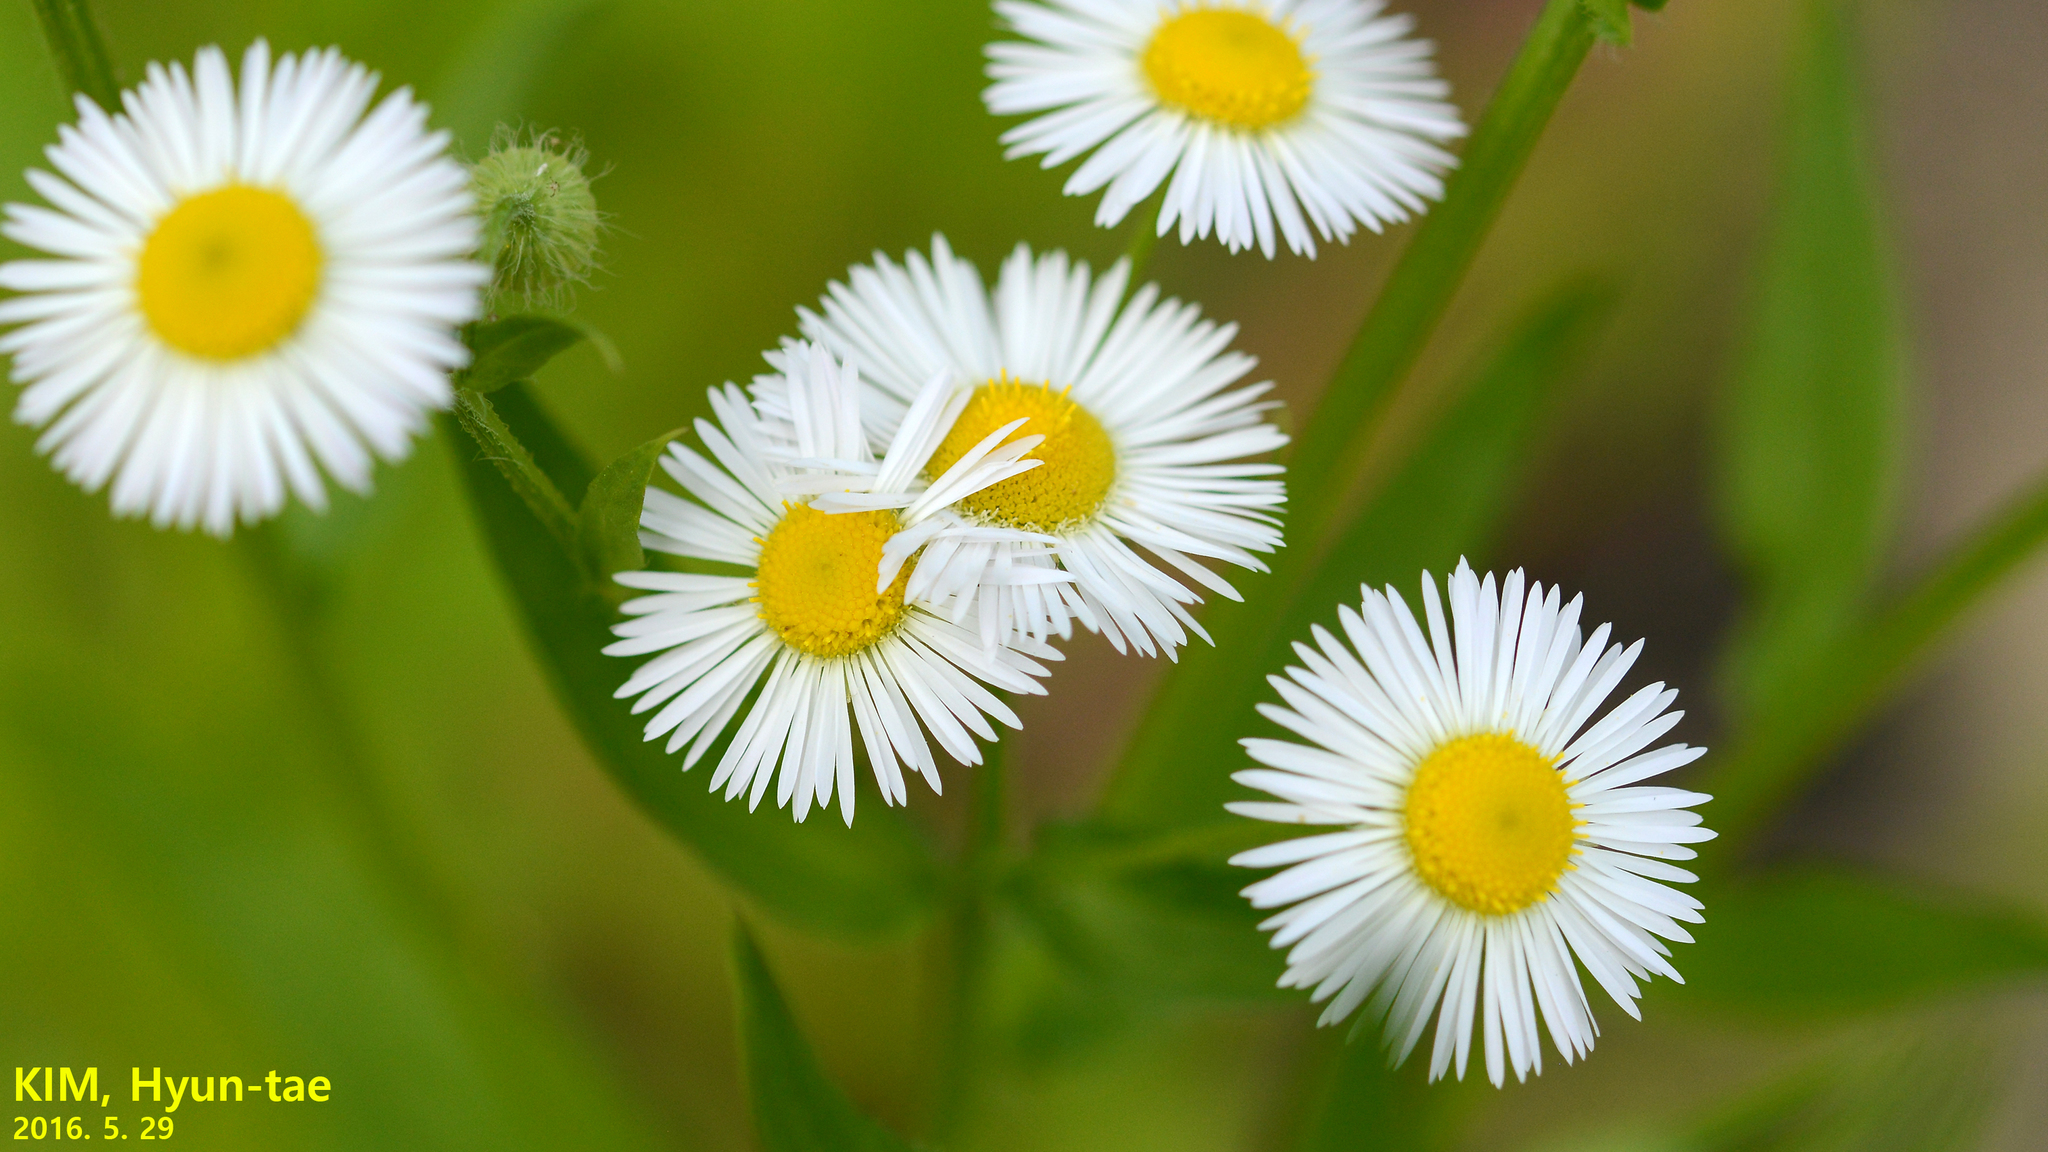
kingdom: Plantae
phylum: Tracheophyta
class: Magnoliopsida
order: Asterales
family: Asteraceae
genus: Erigeron
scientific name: Erigeron annuus
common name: Tall fleabane
